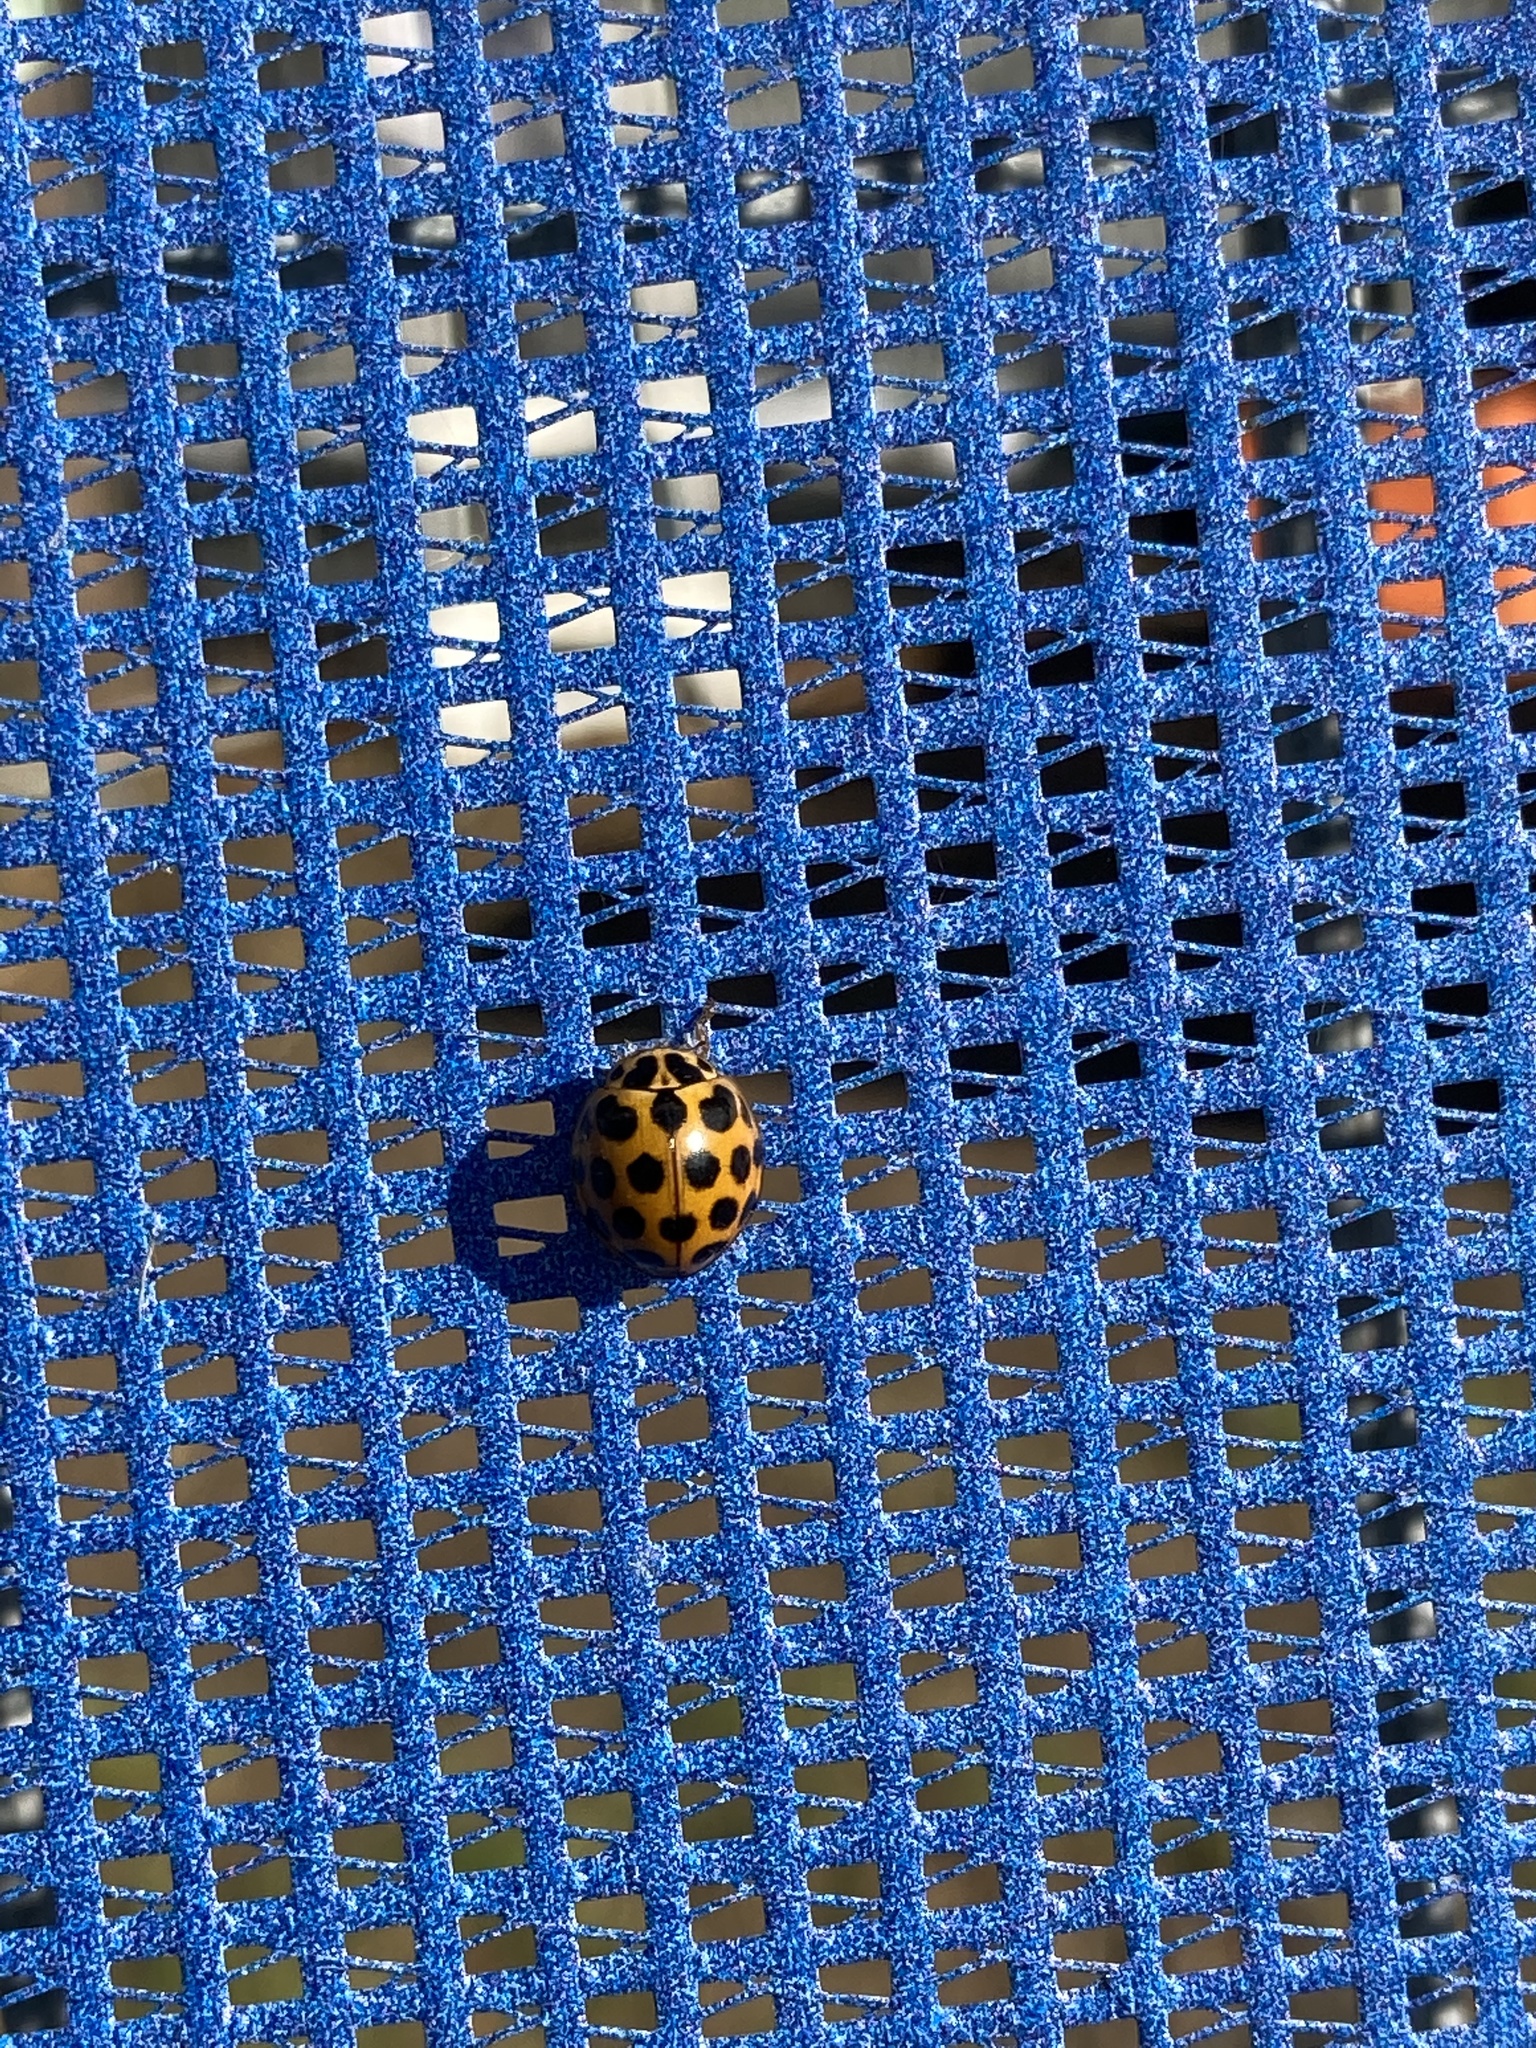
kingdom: Animalia
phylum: Arthropoda
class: Insecta
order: Coleoptera
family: Coccinellidae
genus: Harmonia
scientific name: Harmonia conformis
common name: Common spotted ladybird beetle
